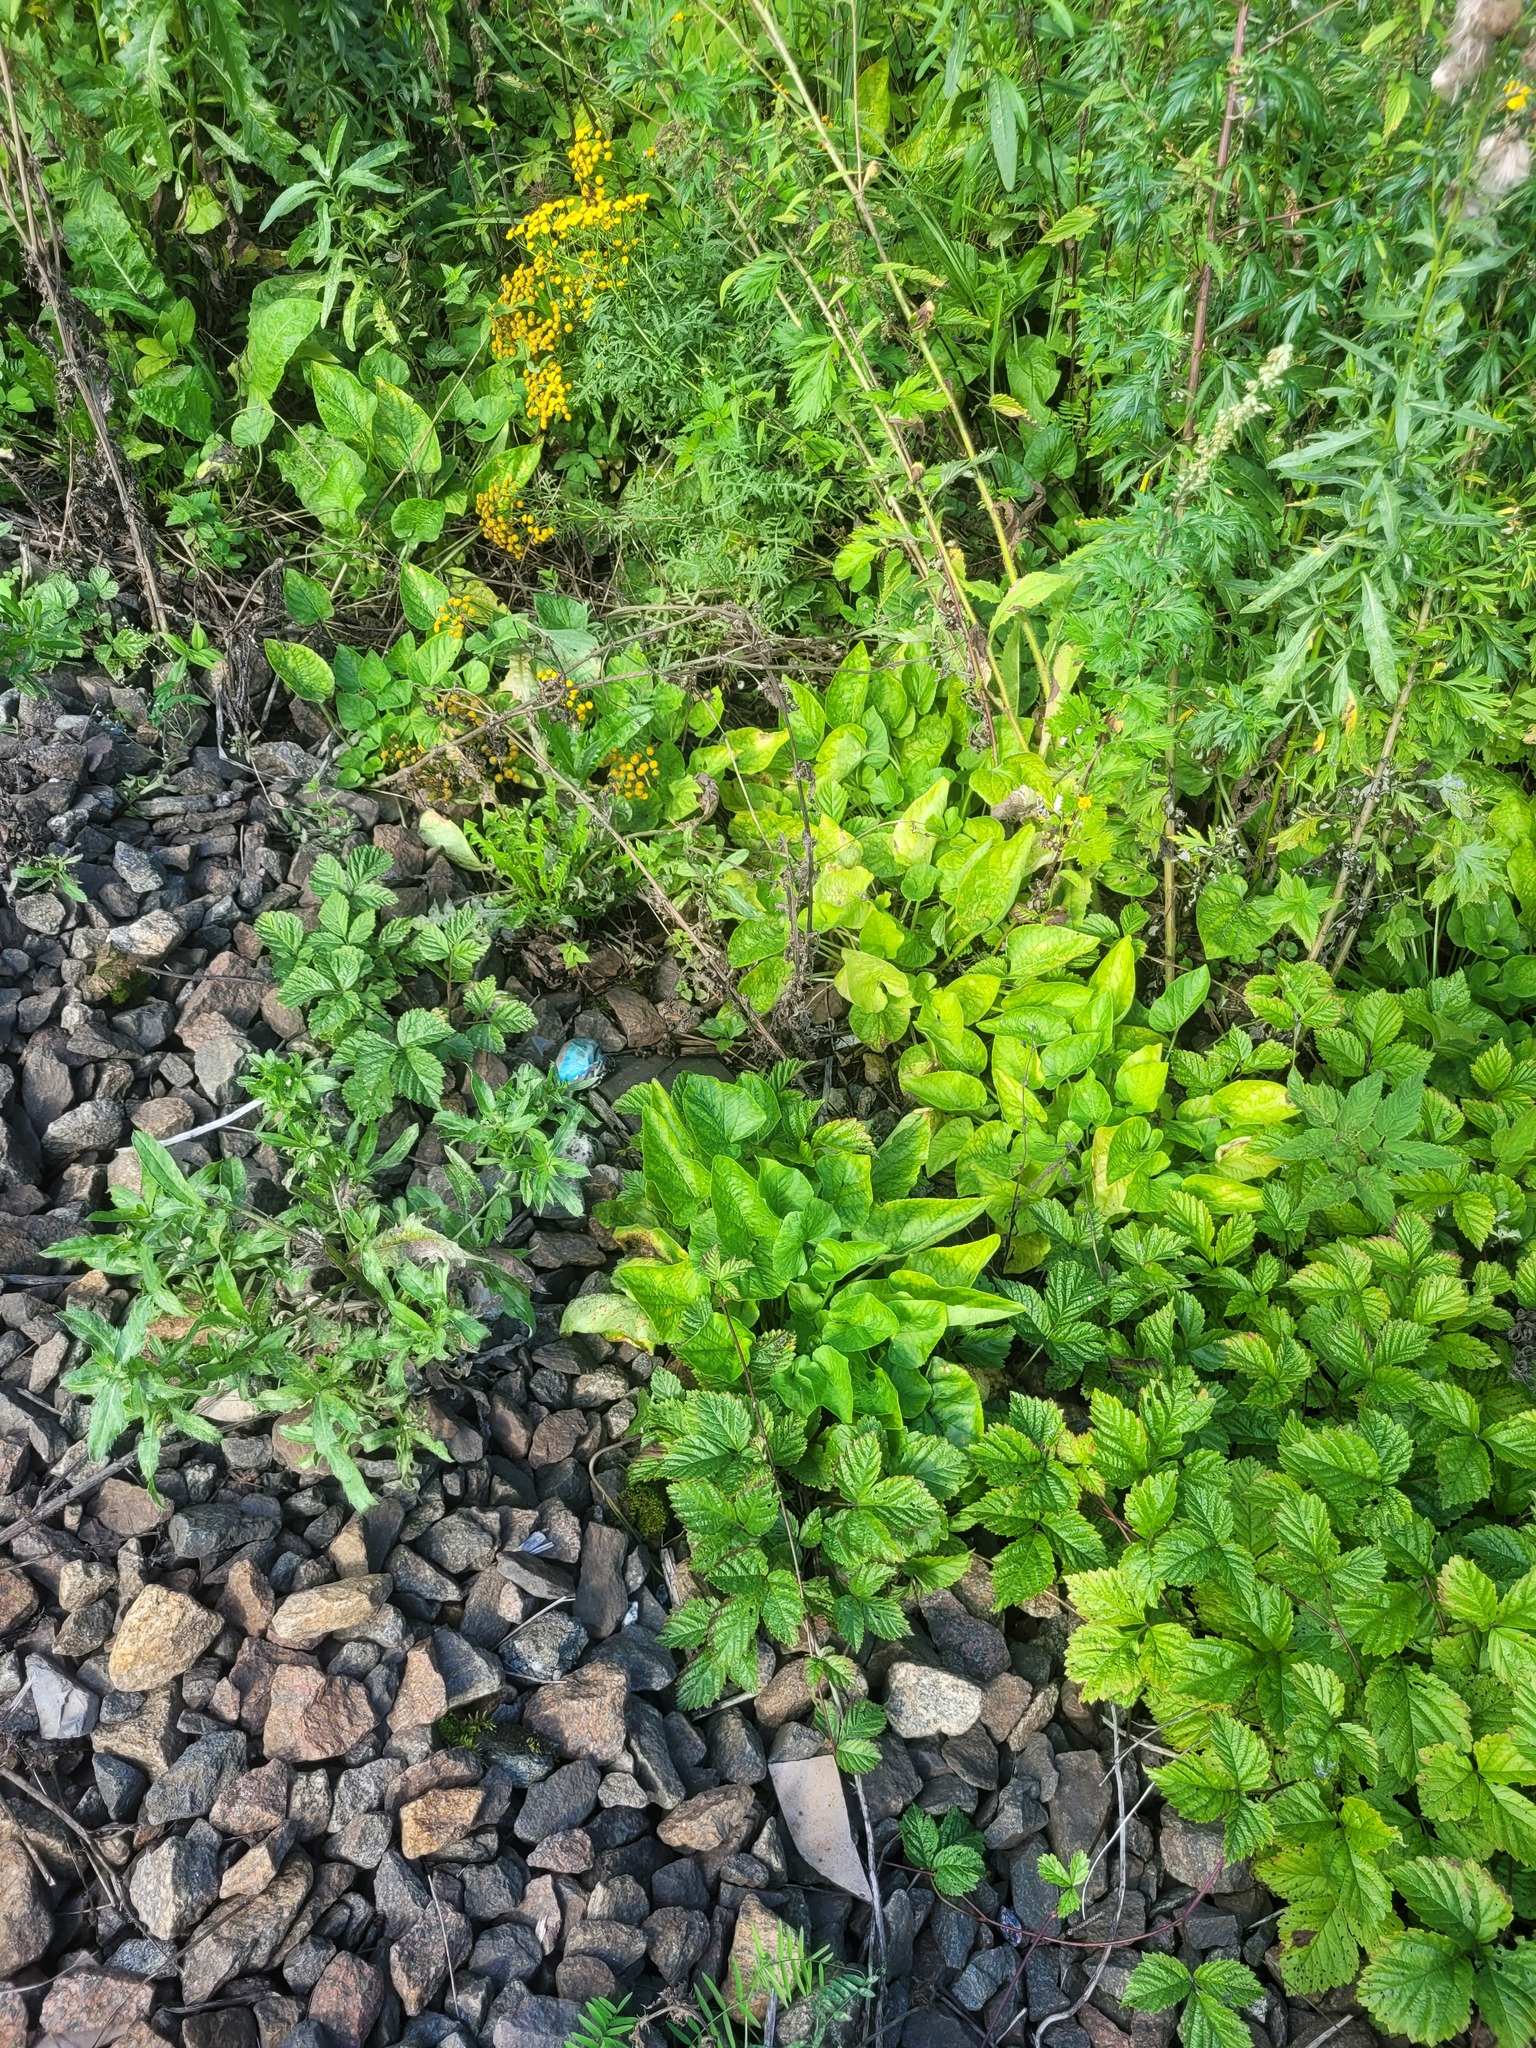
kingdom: Plantae
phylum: Tracheophyta
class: Magnoliopsida
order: Malpighiales
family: Violaceae
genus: Viola
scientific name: Viola hirta
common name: Hairy violet
